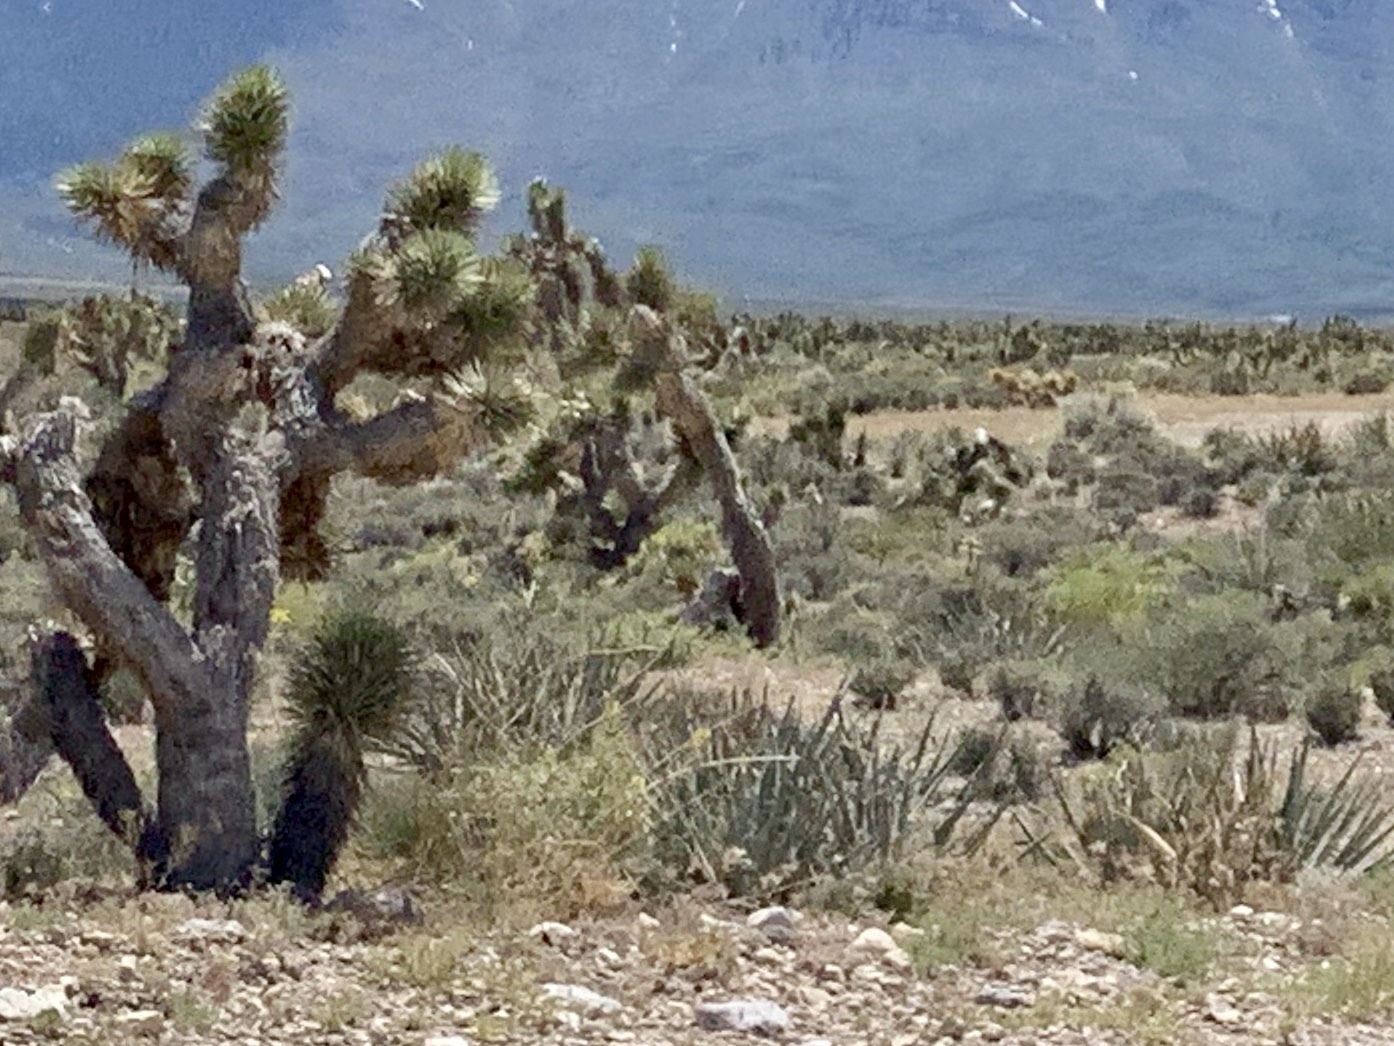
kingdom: Plantae
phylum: Tracheophyta
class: Liliopsida
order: Asparagales
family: Asparagaceae
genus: Yucca
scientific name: Yucca brevifolia
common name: Joshua tree
